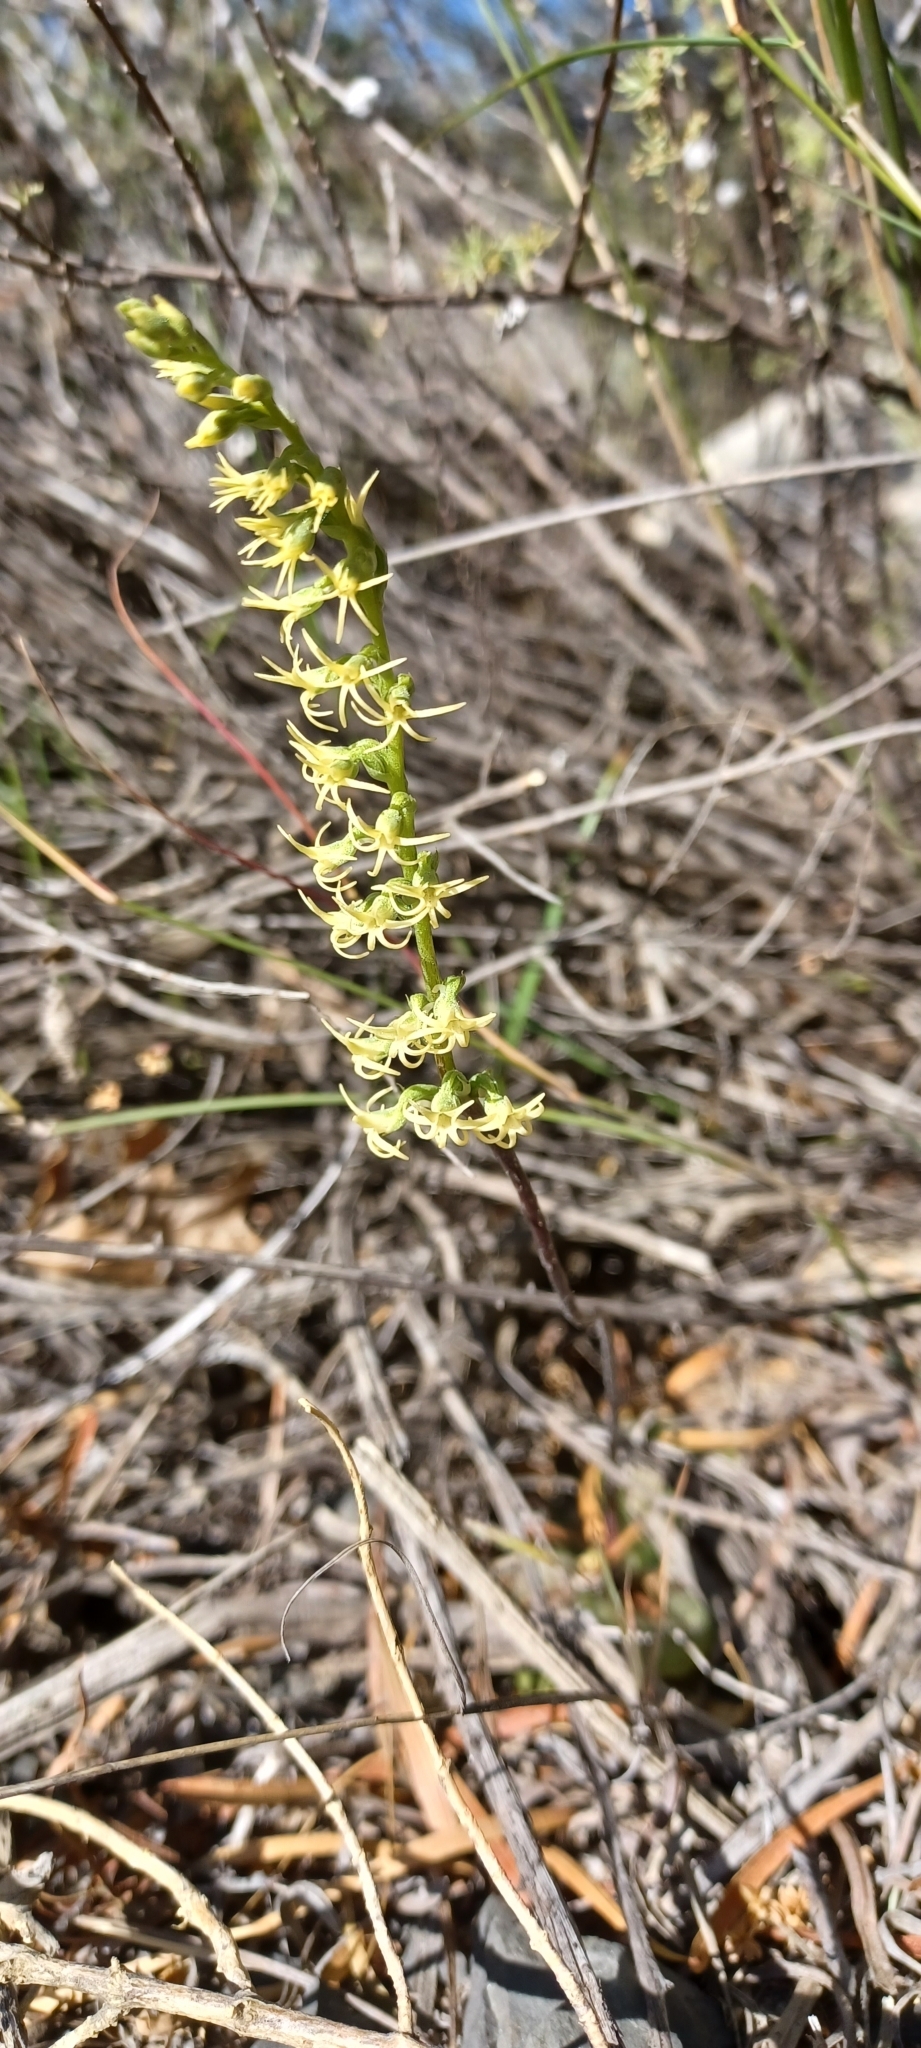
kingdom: Plantae
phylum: Tracheophyta
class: Liliopsida
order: Asparagales
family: Orchidaceae
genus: Holothrix
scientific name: Holothrix secunda
